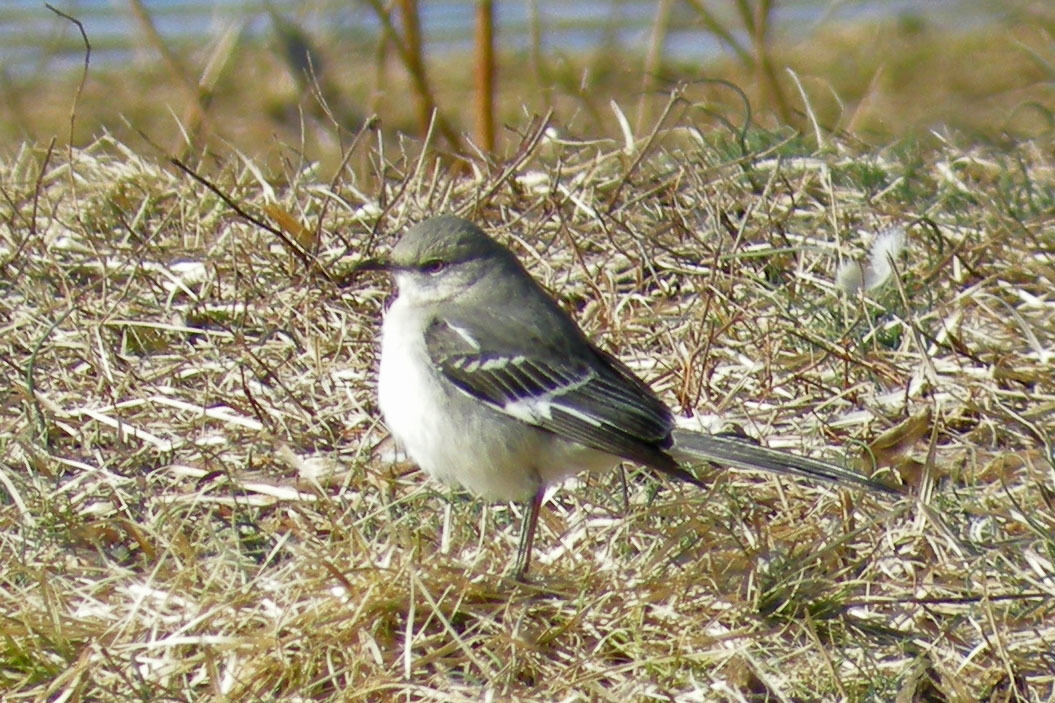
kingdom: Animalia
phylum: Chordata
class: Aves
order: Passeriformes
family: Mimidae
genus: Mimus
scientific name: Mimus polyglottos
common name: Northern mockingbird
